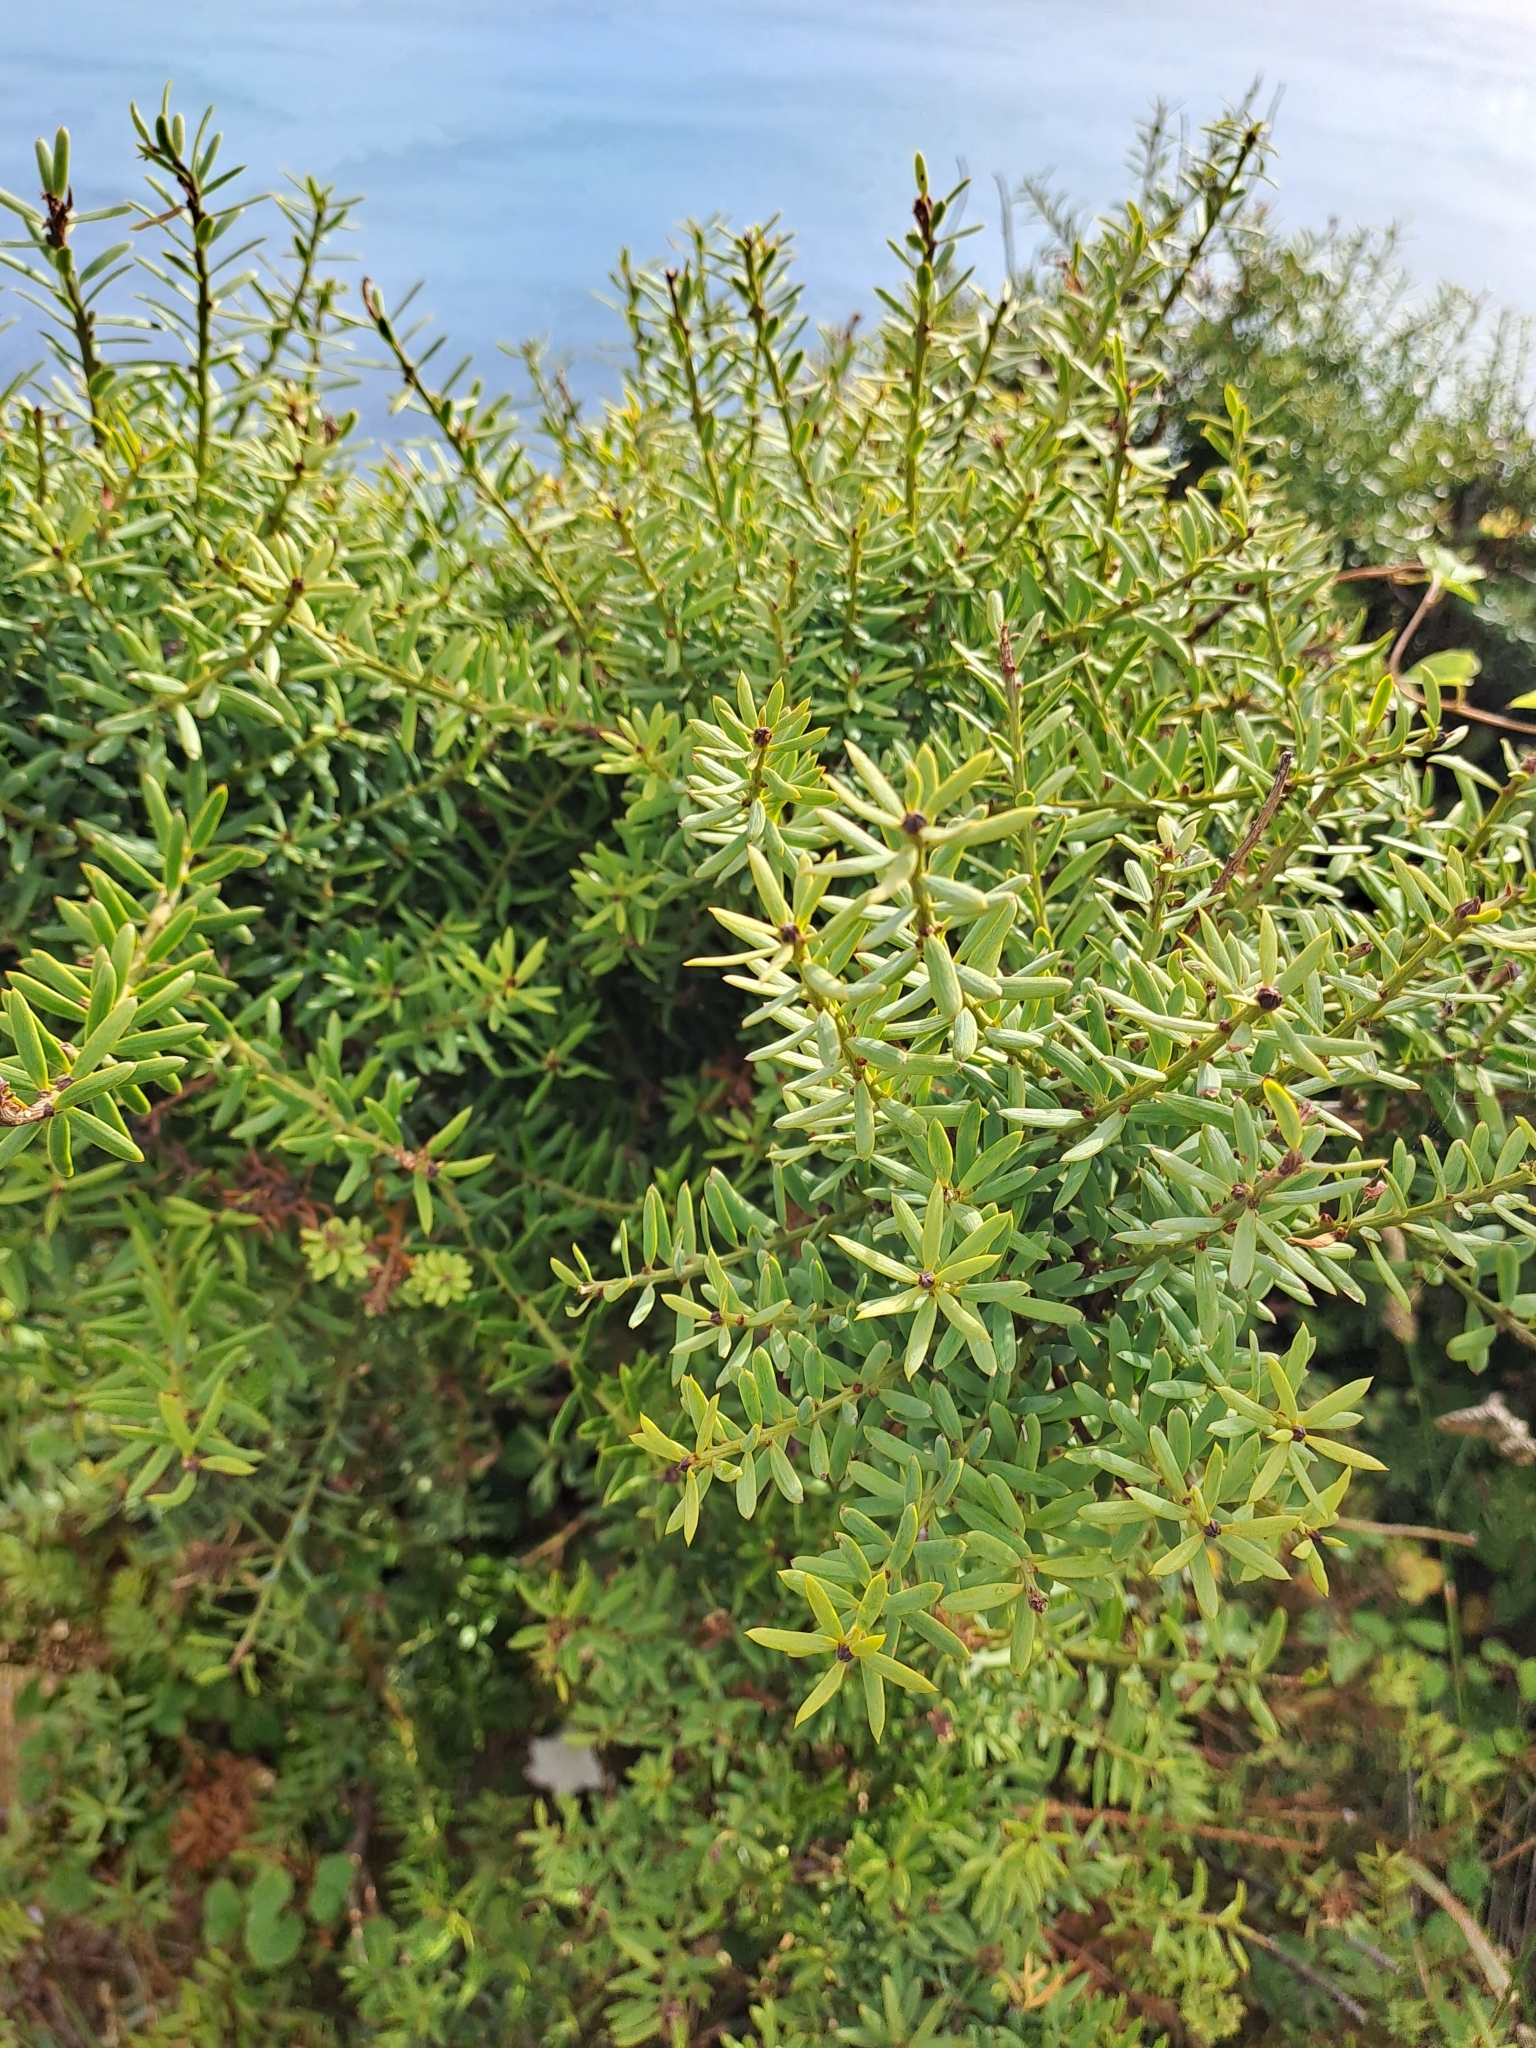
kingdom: Plantae
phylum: Tracheophyta
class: Pinopsida
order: Pinales
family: Podocarpaceae
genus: Podocarpus
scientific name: Podocarpus laetus
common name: Hall's totara
